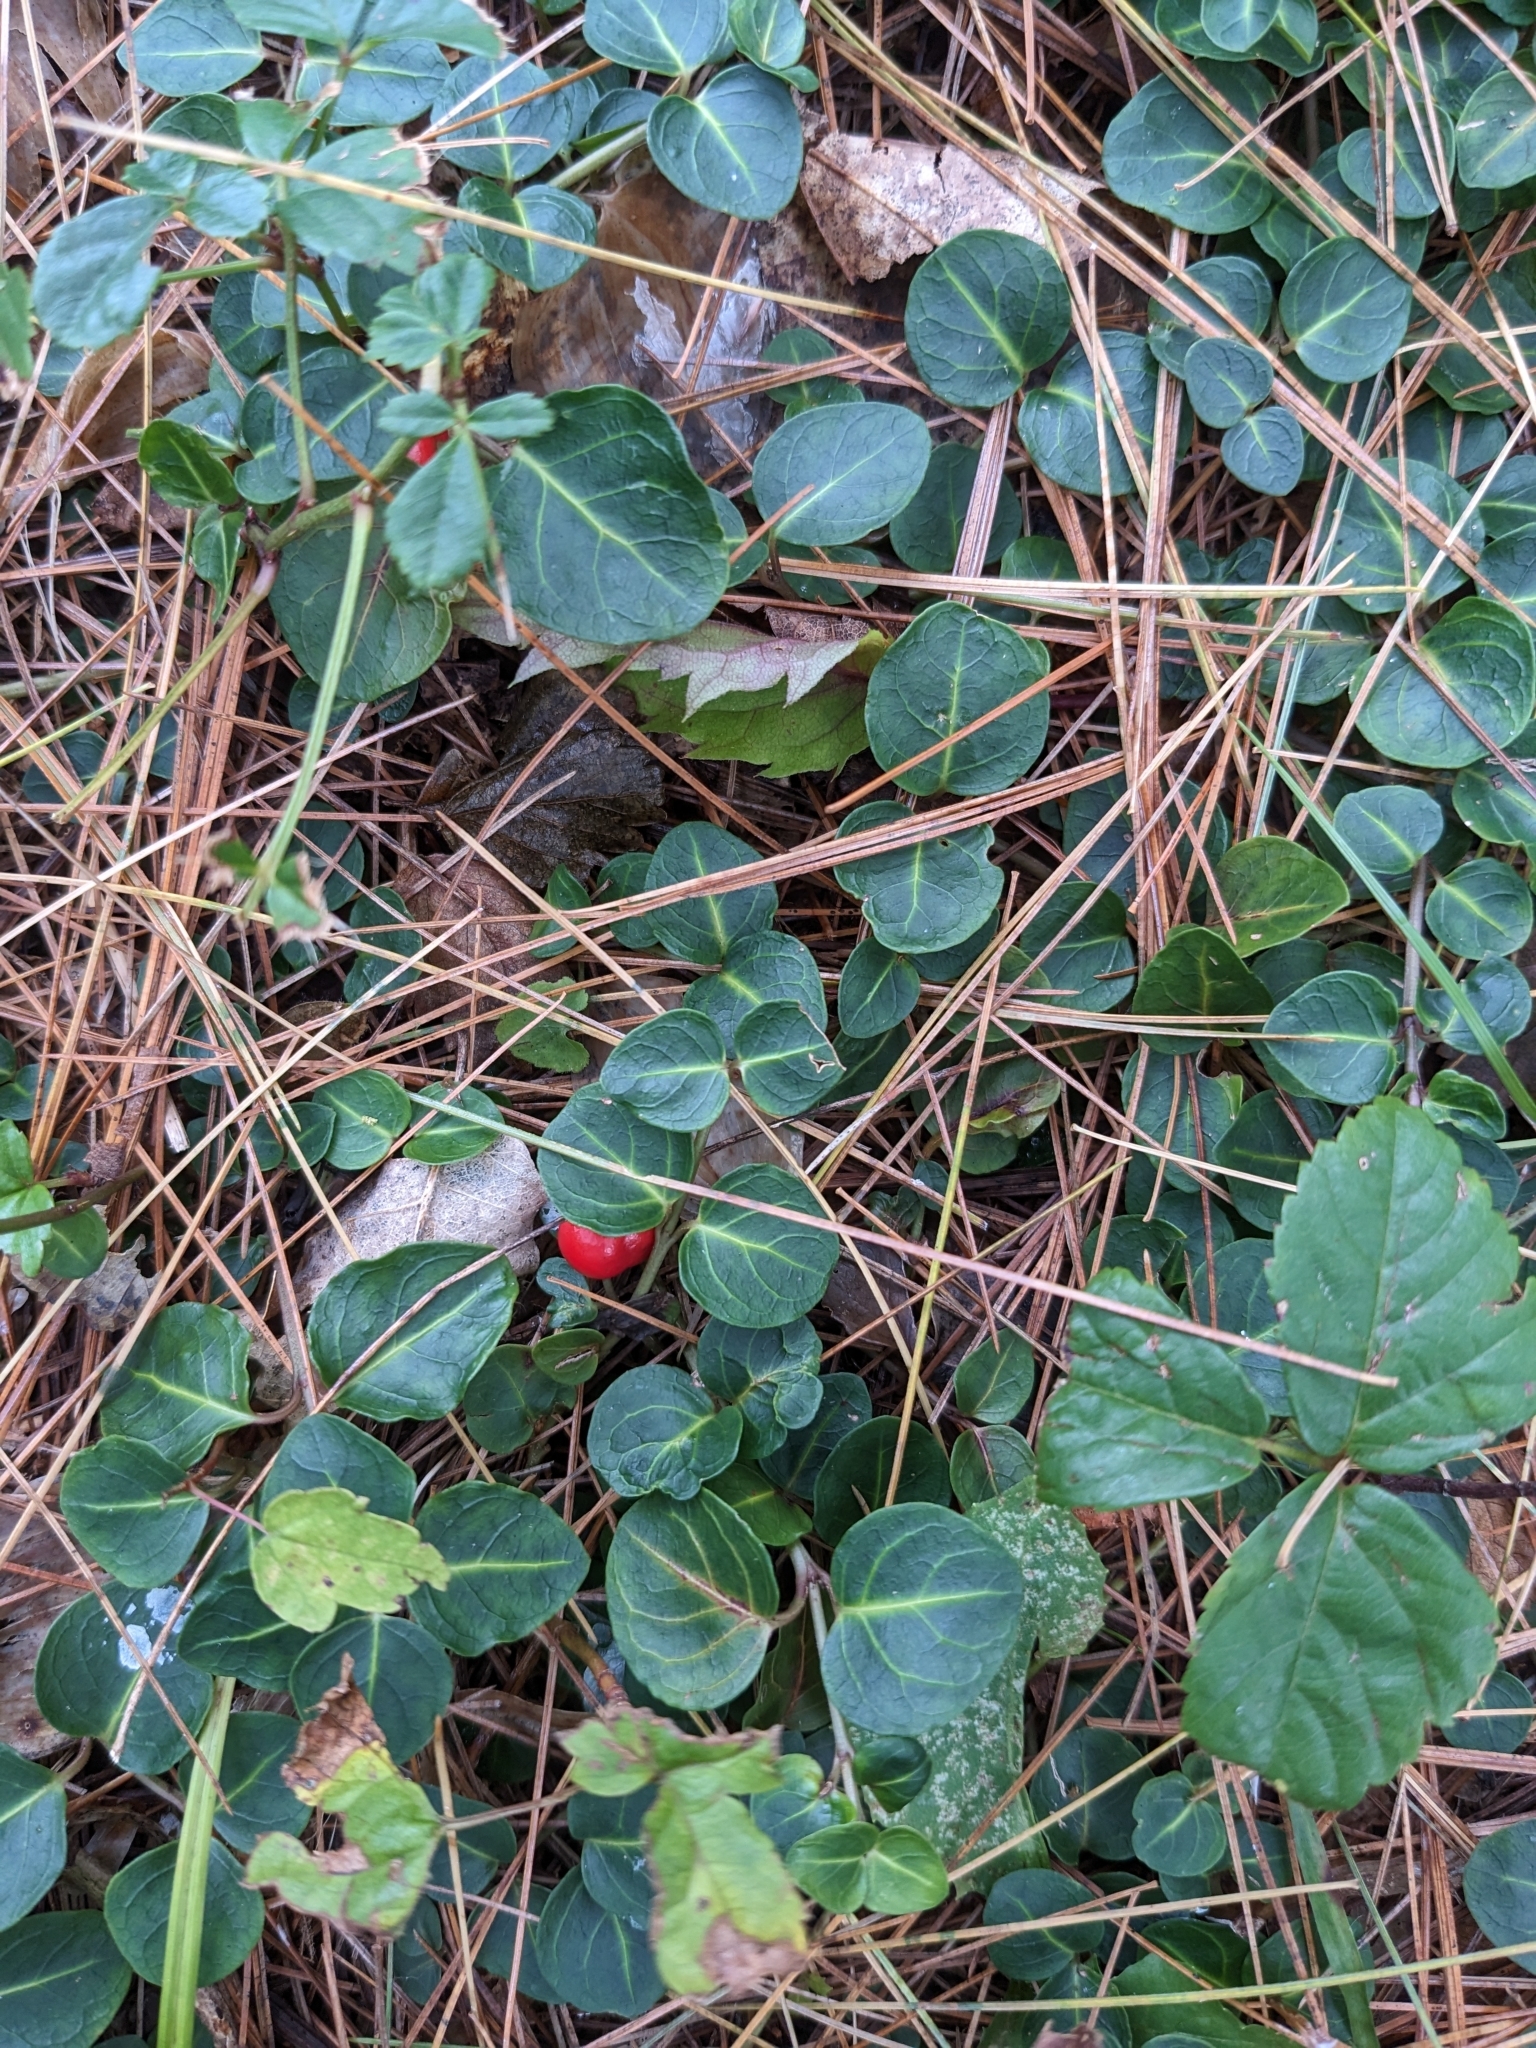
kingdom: Plantae
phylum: Tracheophyta
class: Magnoliopsida
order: Gentianales
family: Rubiaceae
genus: Mitchella
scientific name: Mitchella repens
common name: Partridge-berry
